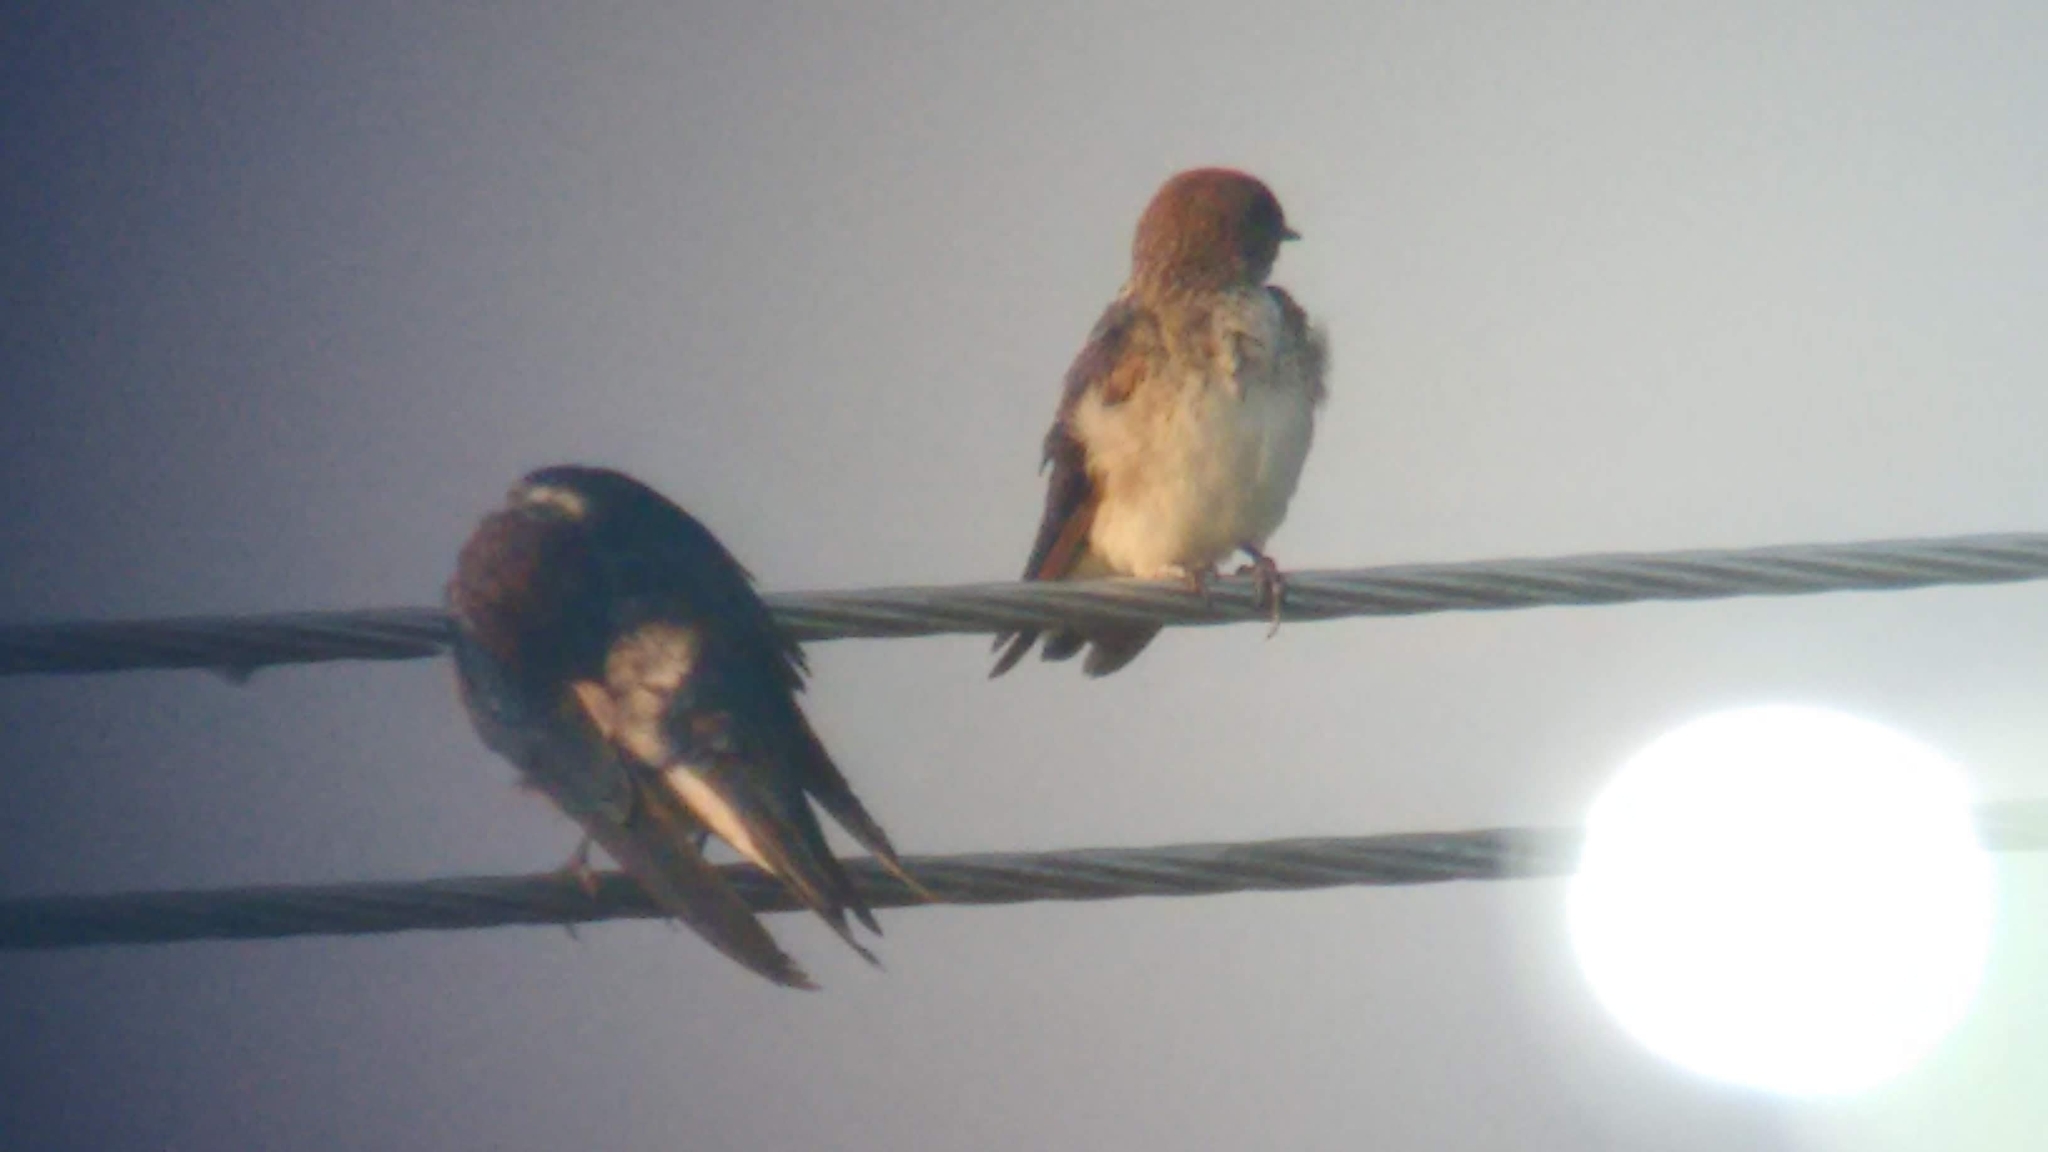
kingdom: Animalia
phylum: Chordata
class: Aves
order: Passeriformes
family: Hirundinidae
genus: Petrochelidon
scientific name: Petrochelidon fluvicola
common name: Streak-throated swallow
